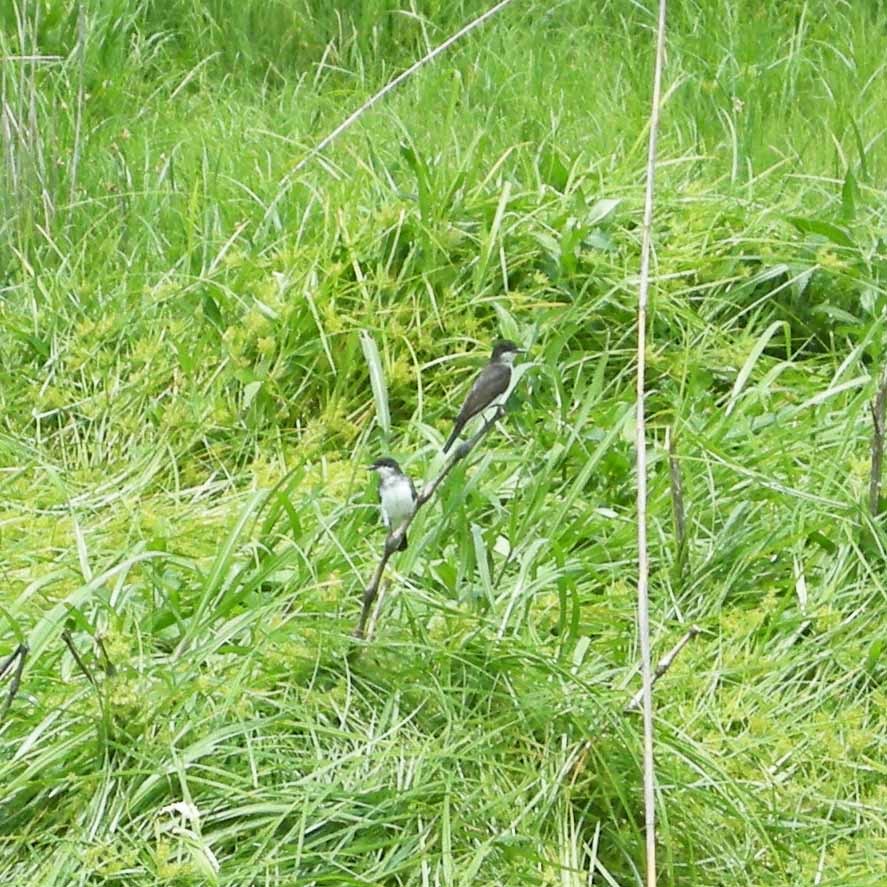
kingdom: Animalia
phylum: Chordata
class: Aves
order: Passeriformes
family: Tyrannidae
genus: Tyrannus
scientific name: Tyrannus tyrannus
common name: Eastern kingbird
